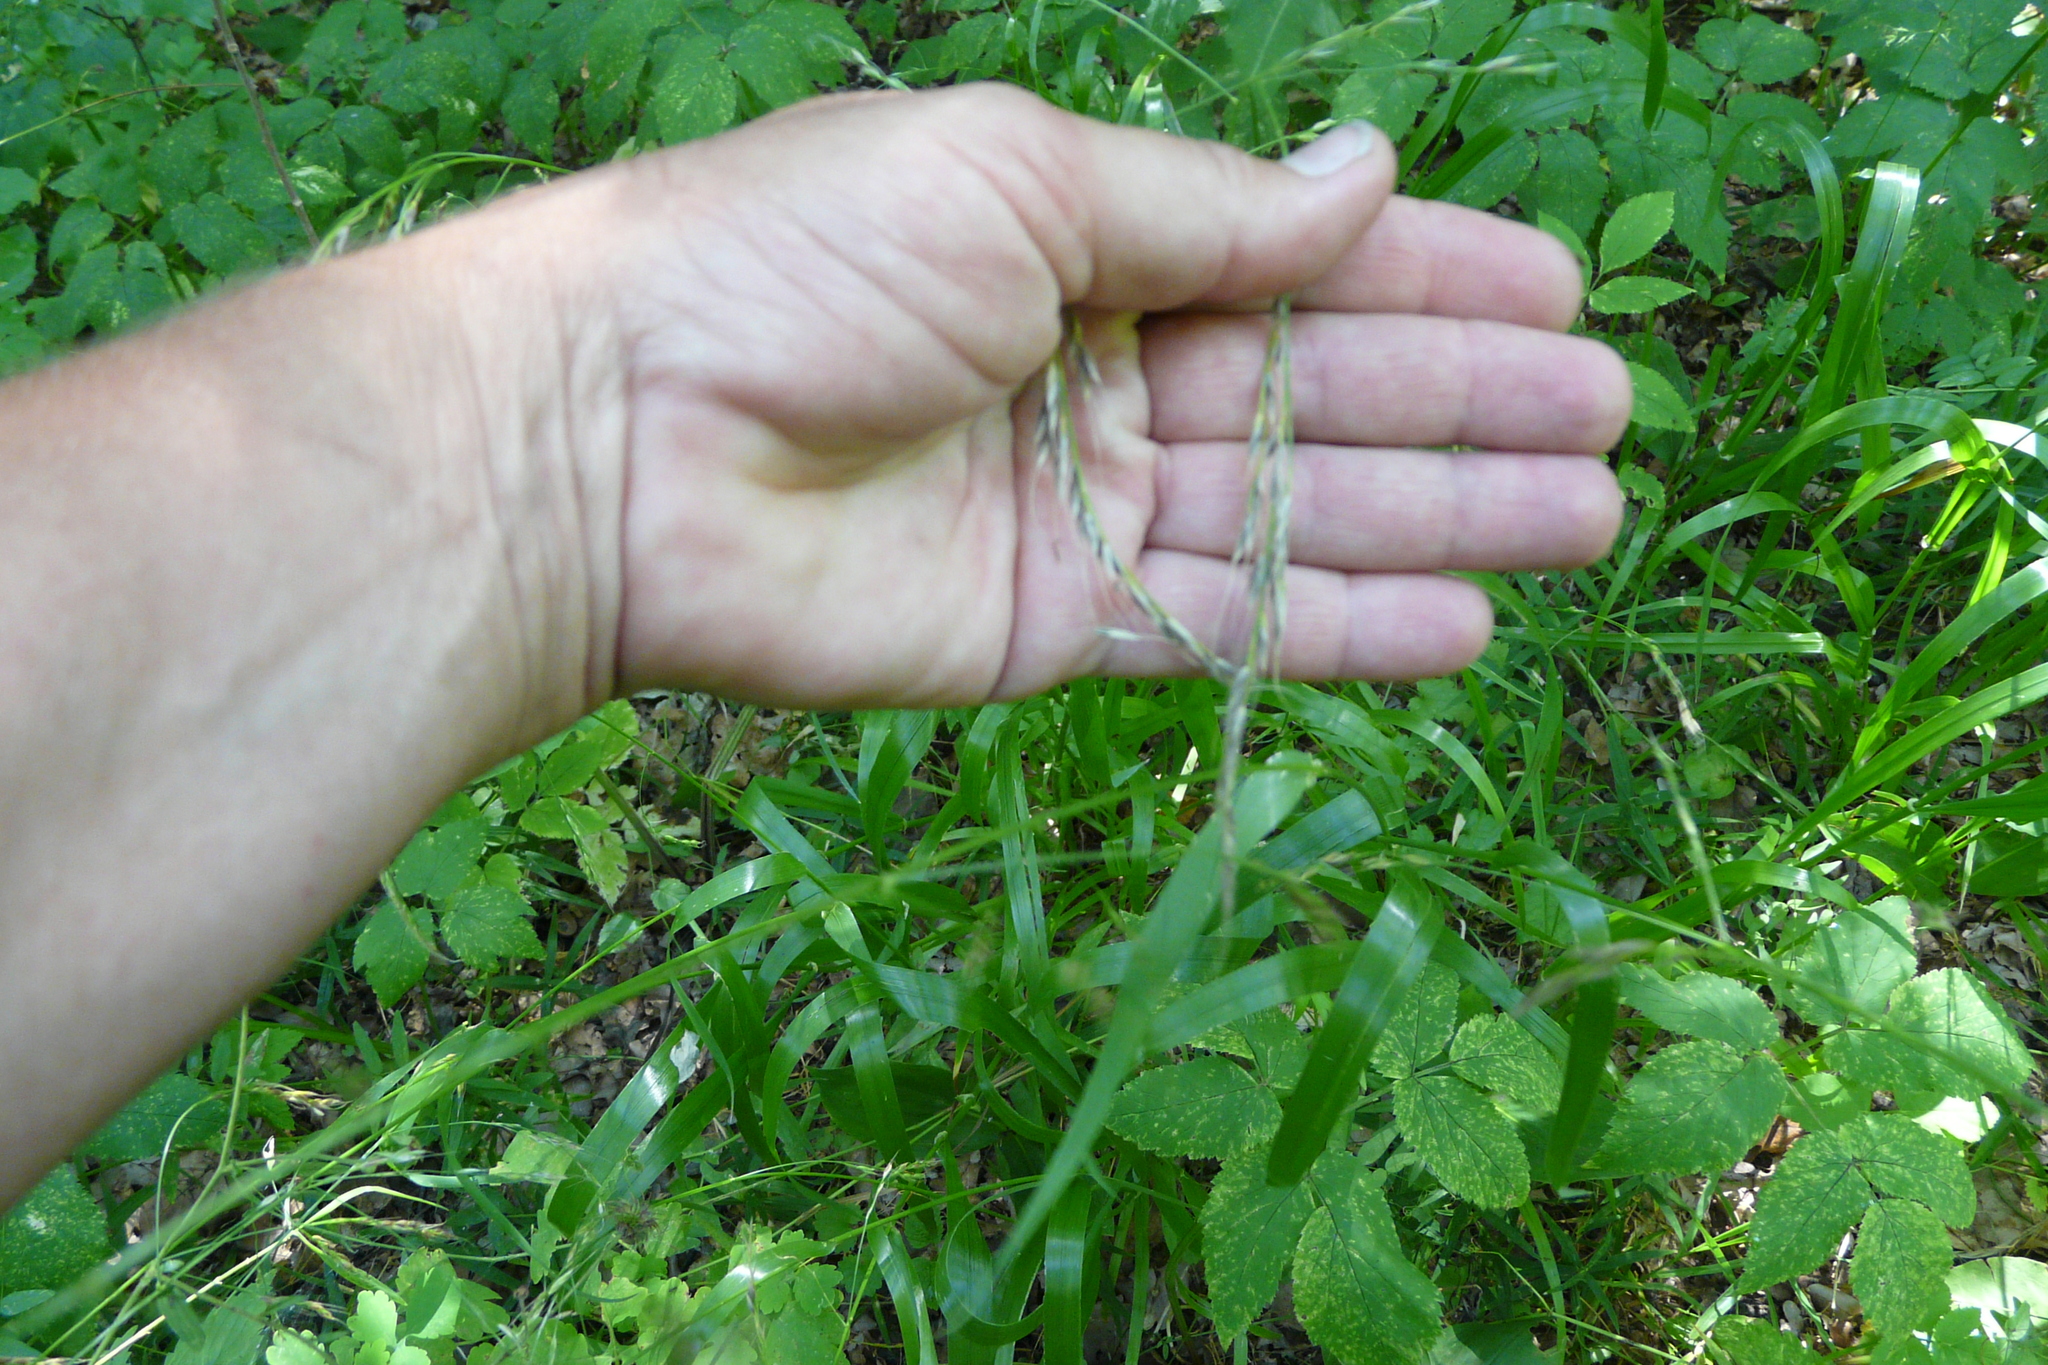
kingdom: Plantae
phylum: Tracheophyta
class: Liliopsida
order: Poales
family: Poaceae
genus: Lolium
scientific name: Lolium giganteum
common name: Giant fescue
